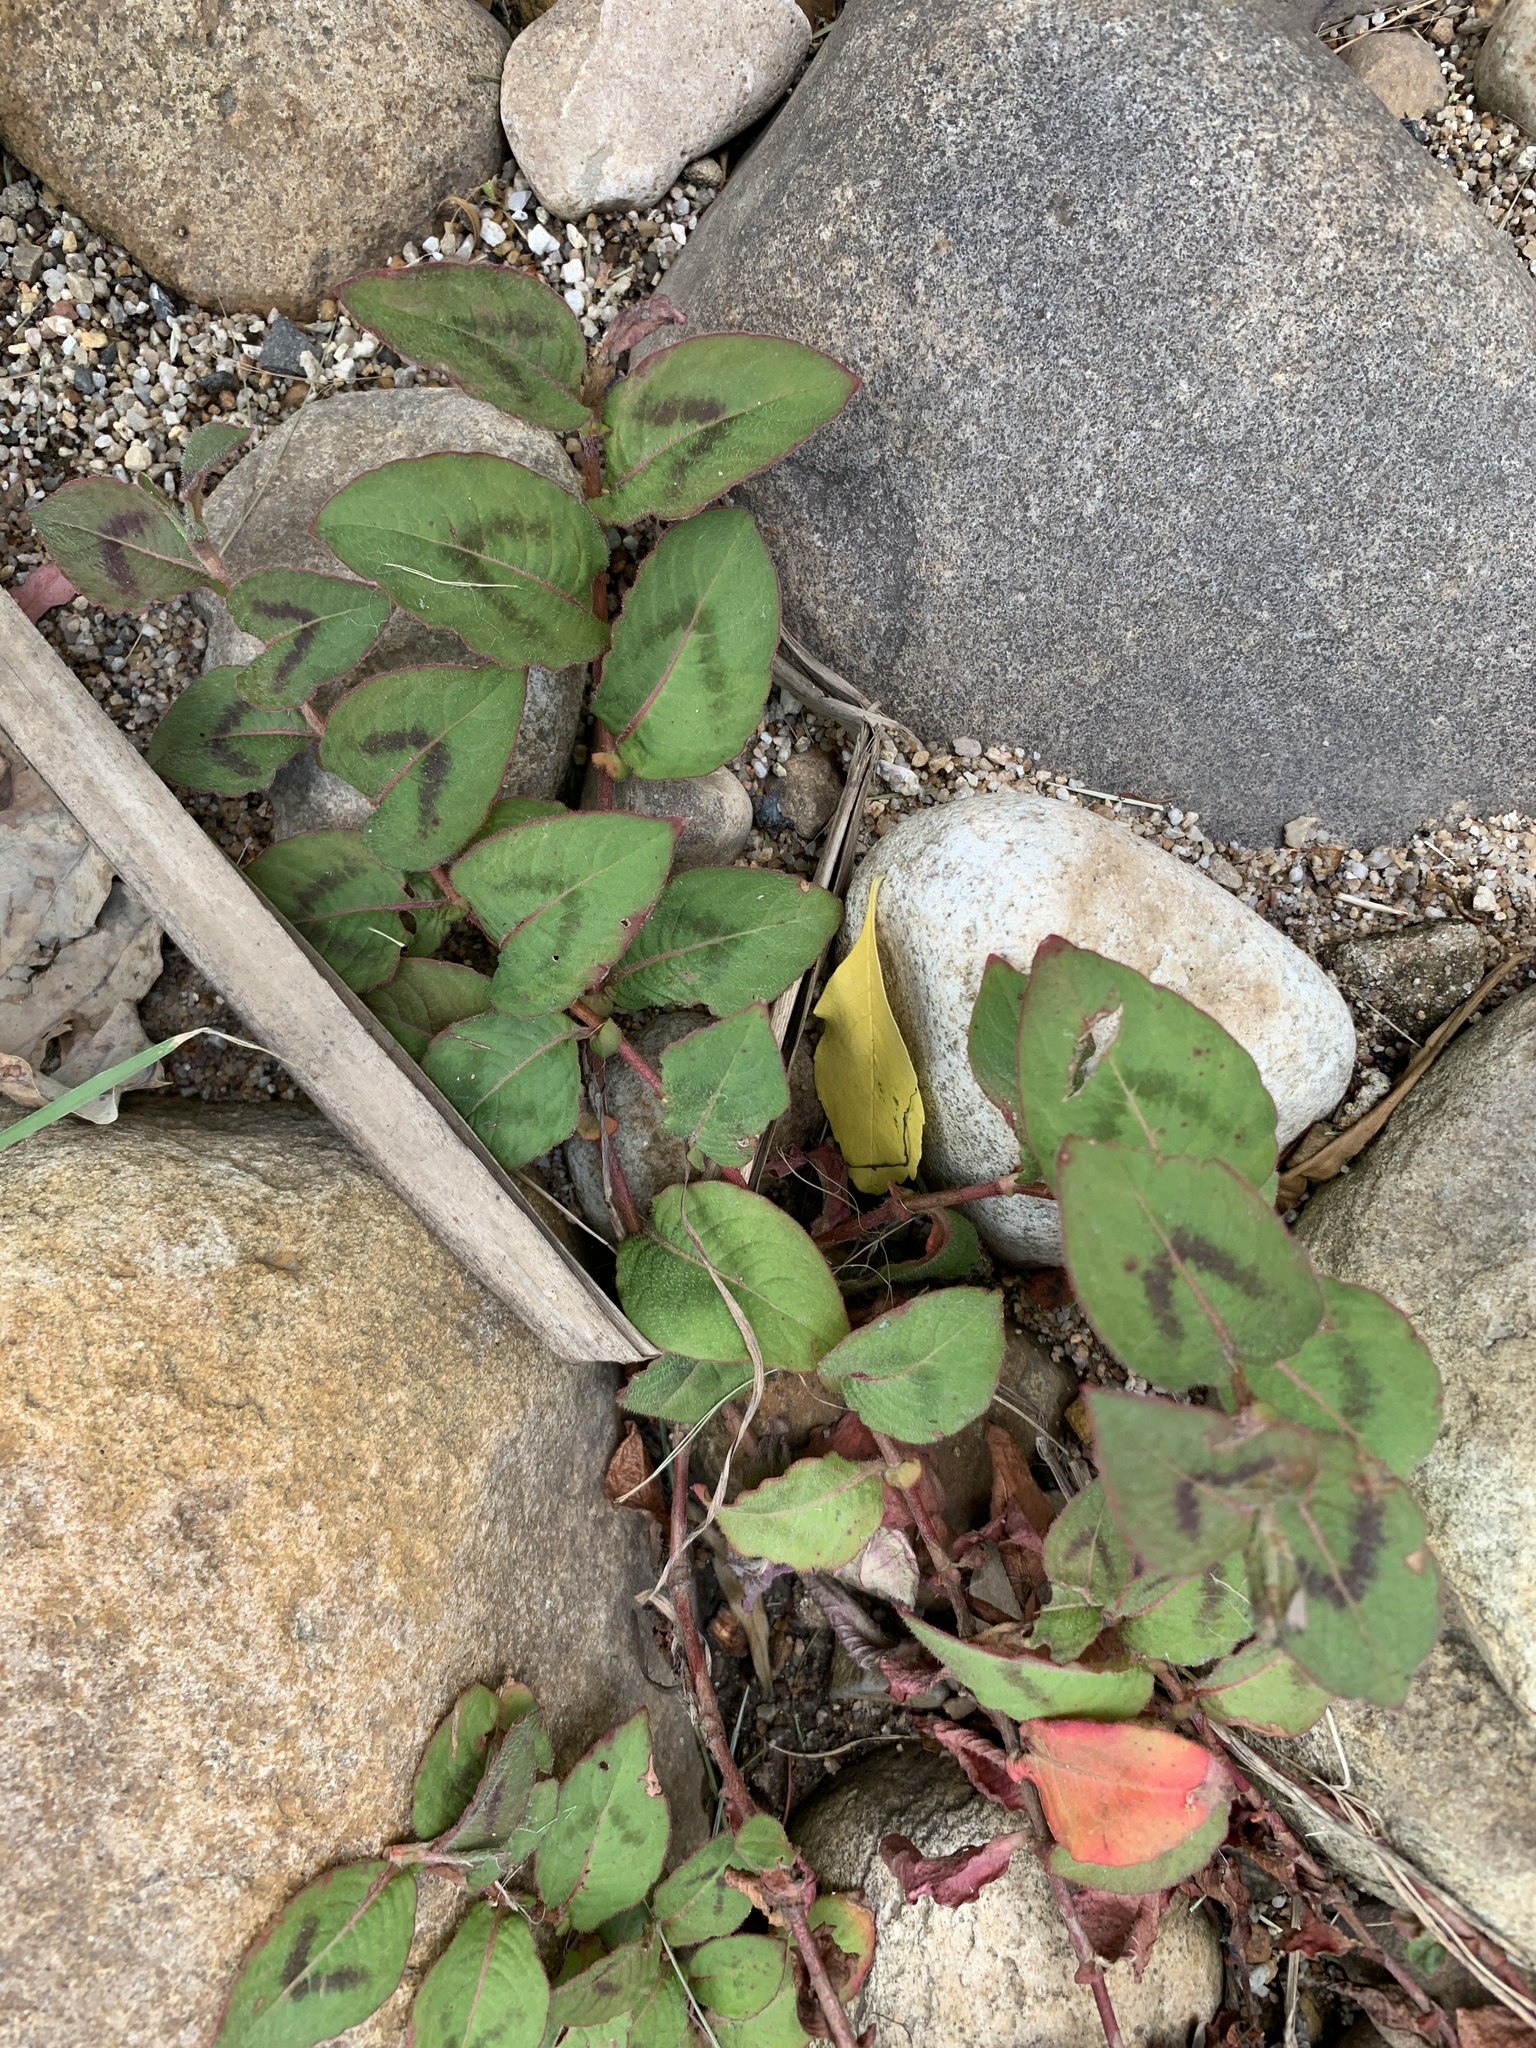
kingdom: Plantae
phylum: Tracheophyta
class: Magnoliopsida
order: Caryophyllales
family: Polygonaceae
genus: Persicaria
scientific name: Persicaria capitata
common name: Pinkhead smartweed
